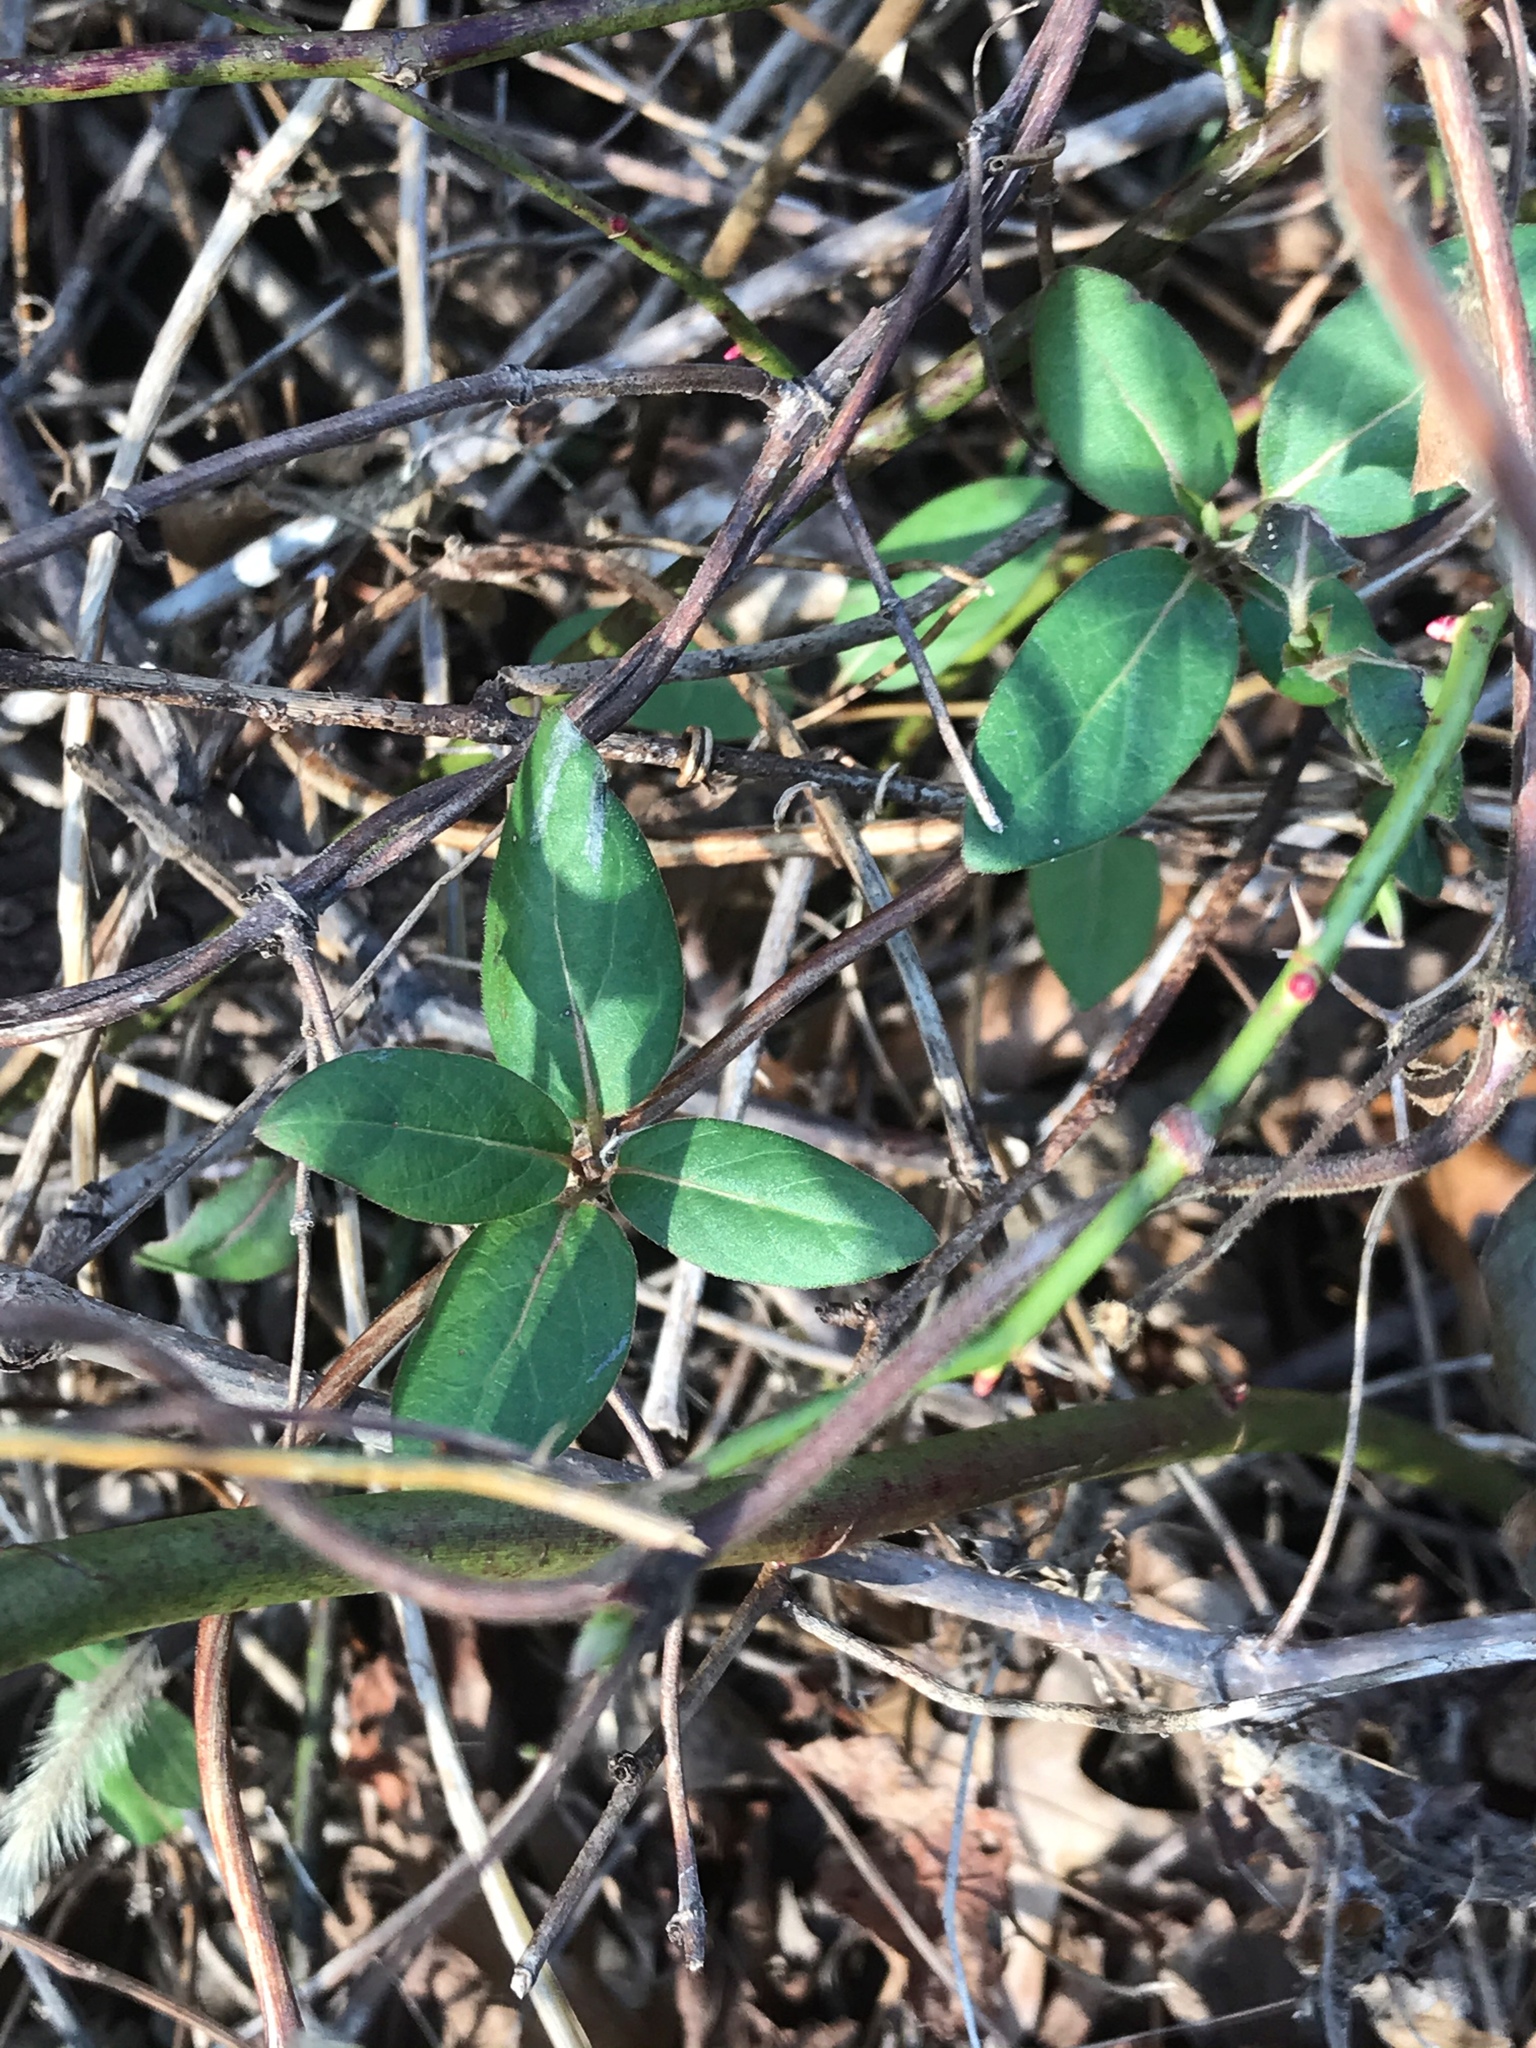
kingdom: Plantae
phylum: Tracheophyta
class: Magnoliopsida
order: Dipsacales
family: Caprifoliaceae
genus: Lonicera
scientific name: Lonicera japonica
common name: Japanese honeysuckle
